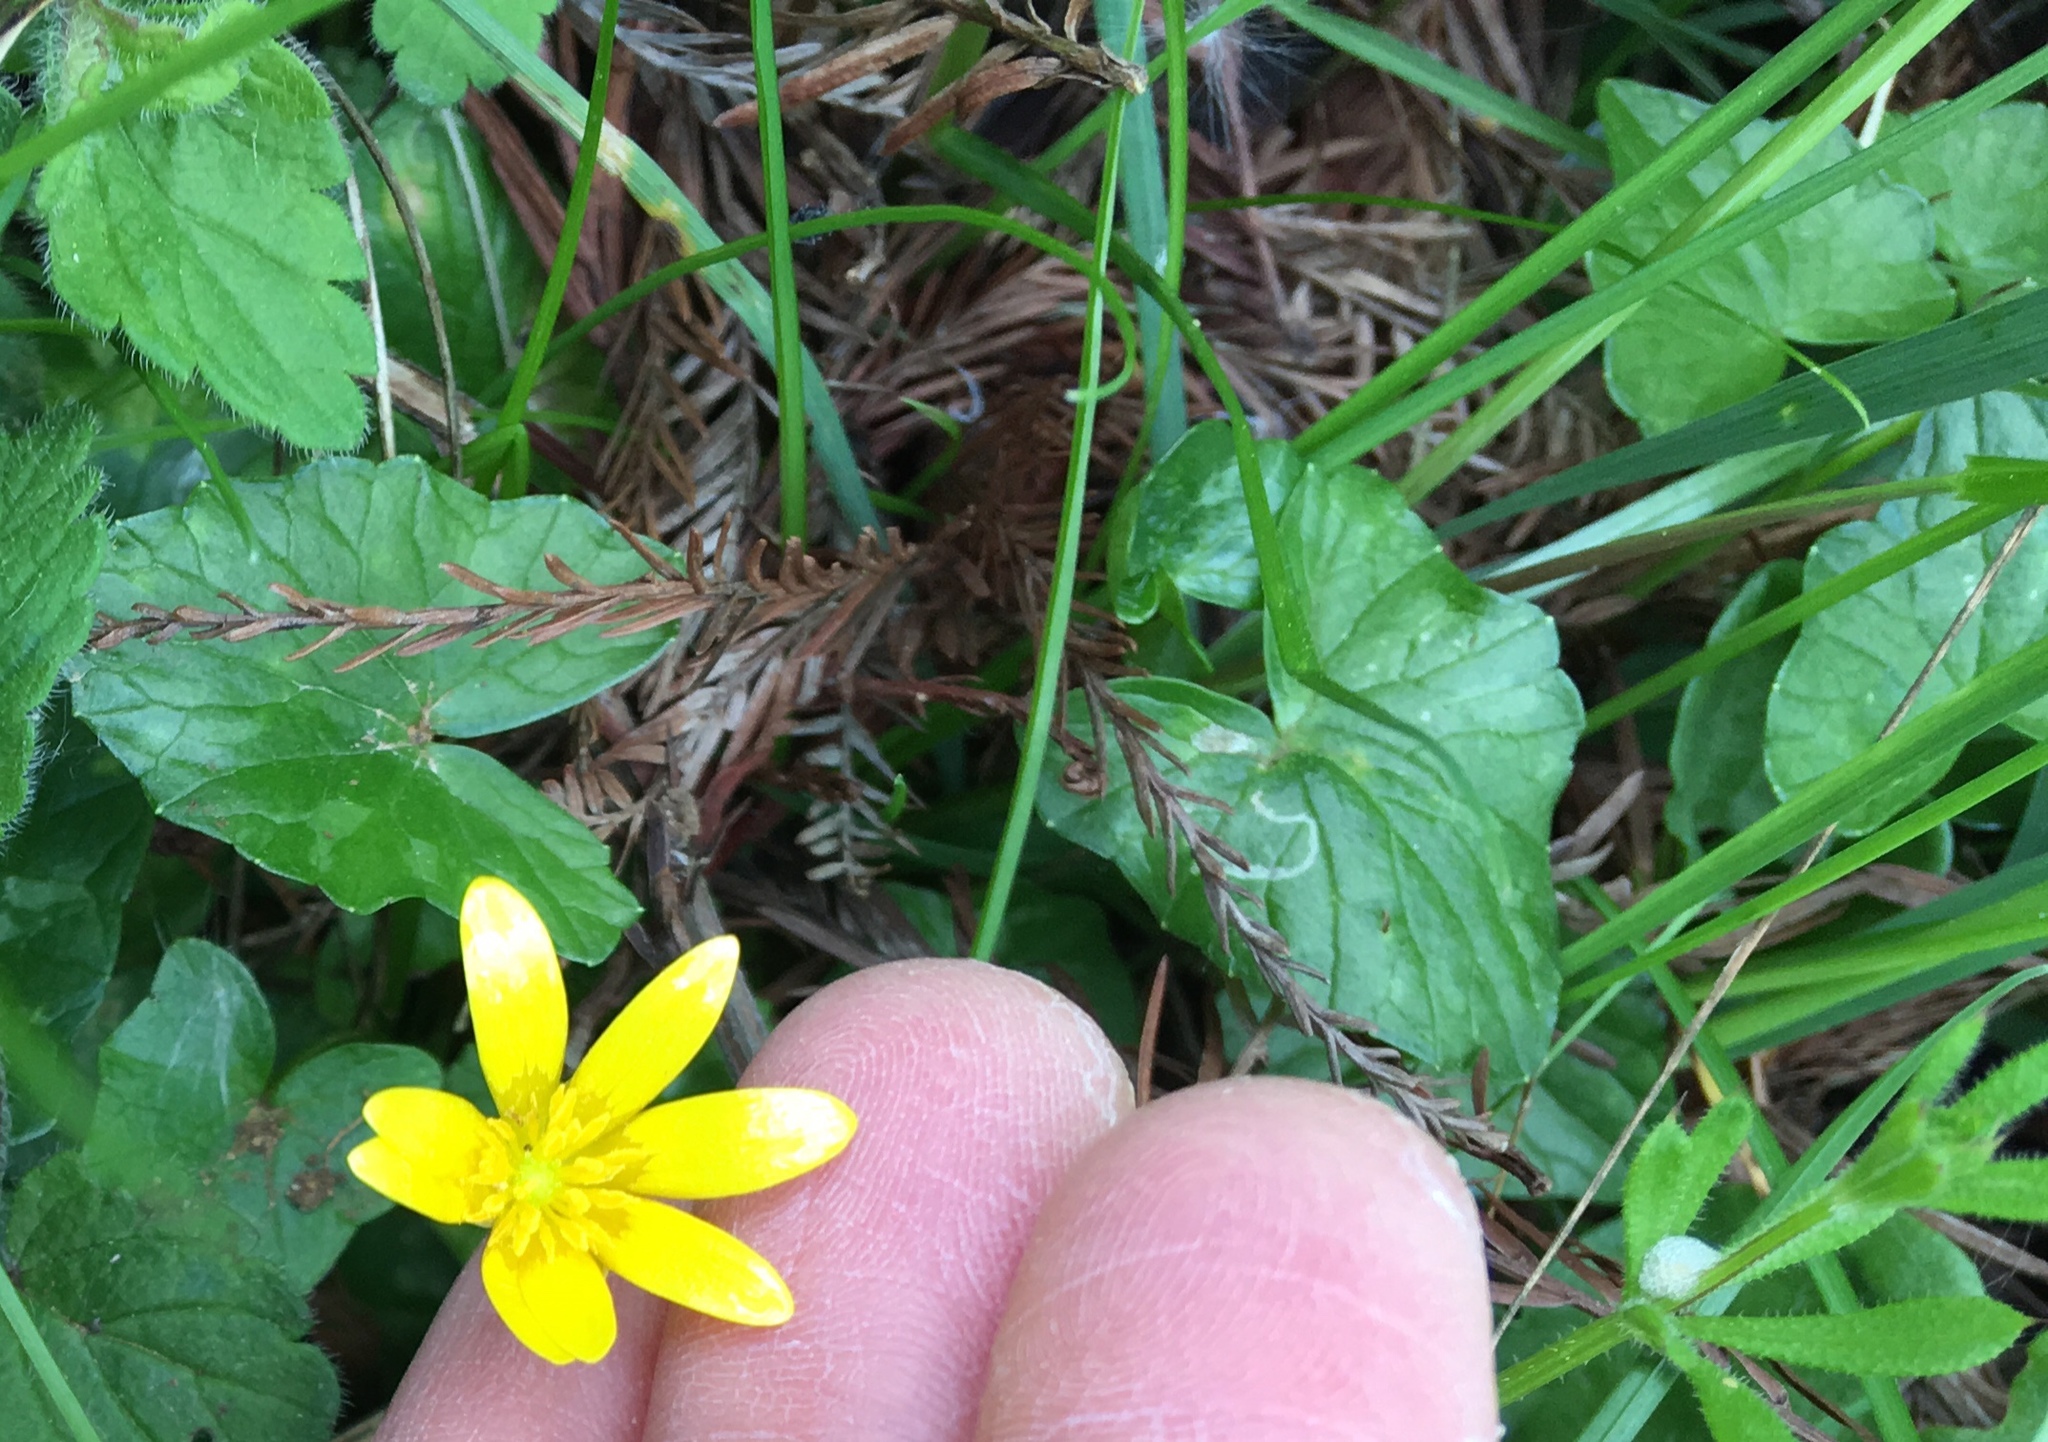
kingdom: Plantae
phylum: Tracheophyta
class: Magnoliopsida
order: Ranunculales
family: Ranunculaceae
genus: Ficaria
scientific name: Ficaria verna
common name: Lesser celandine
